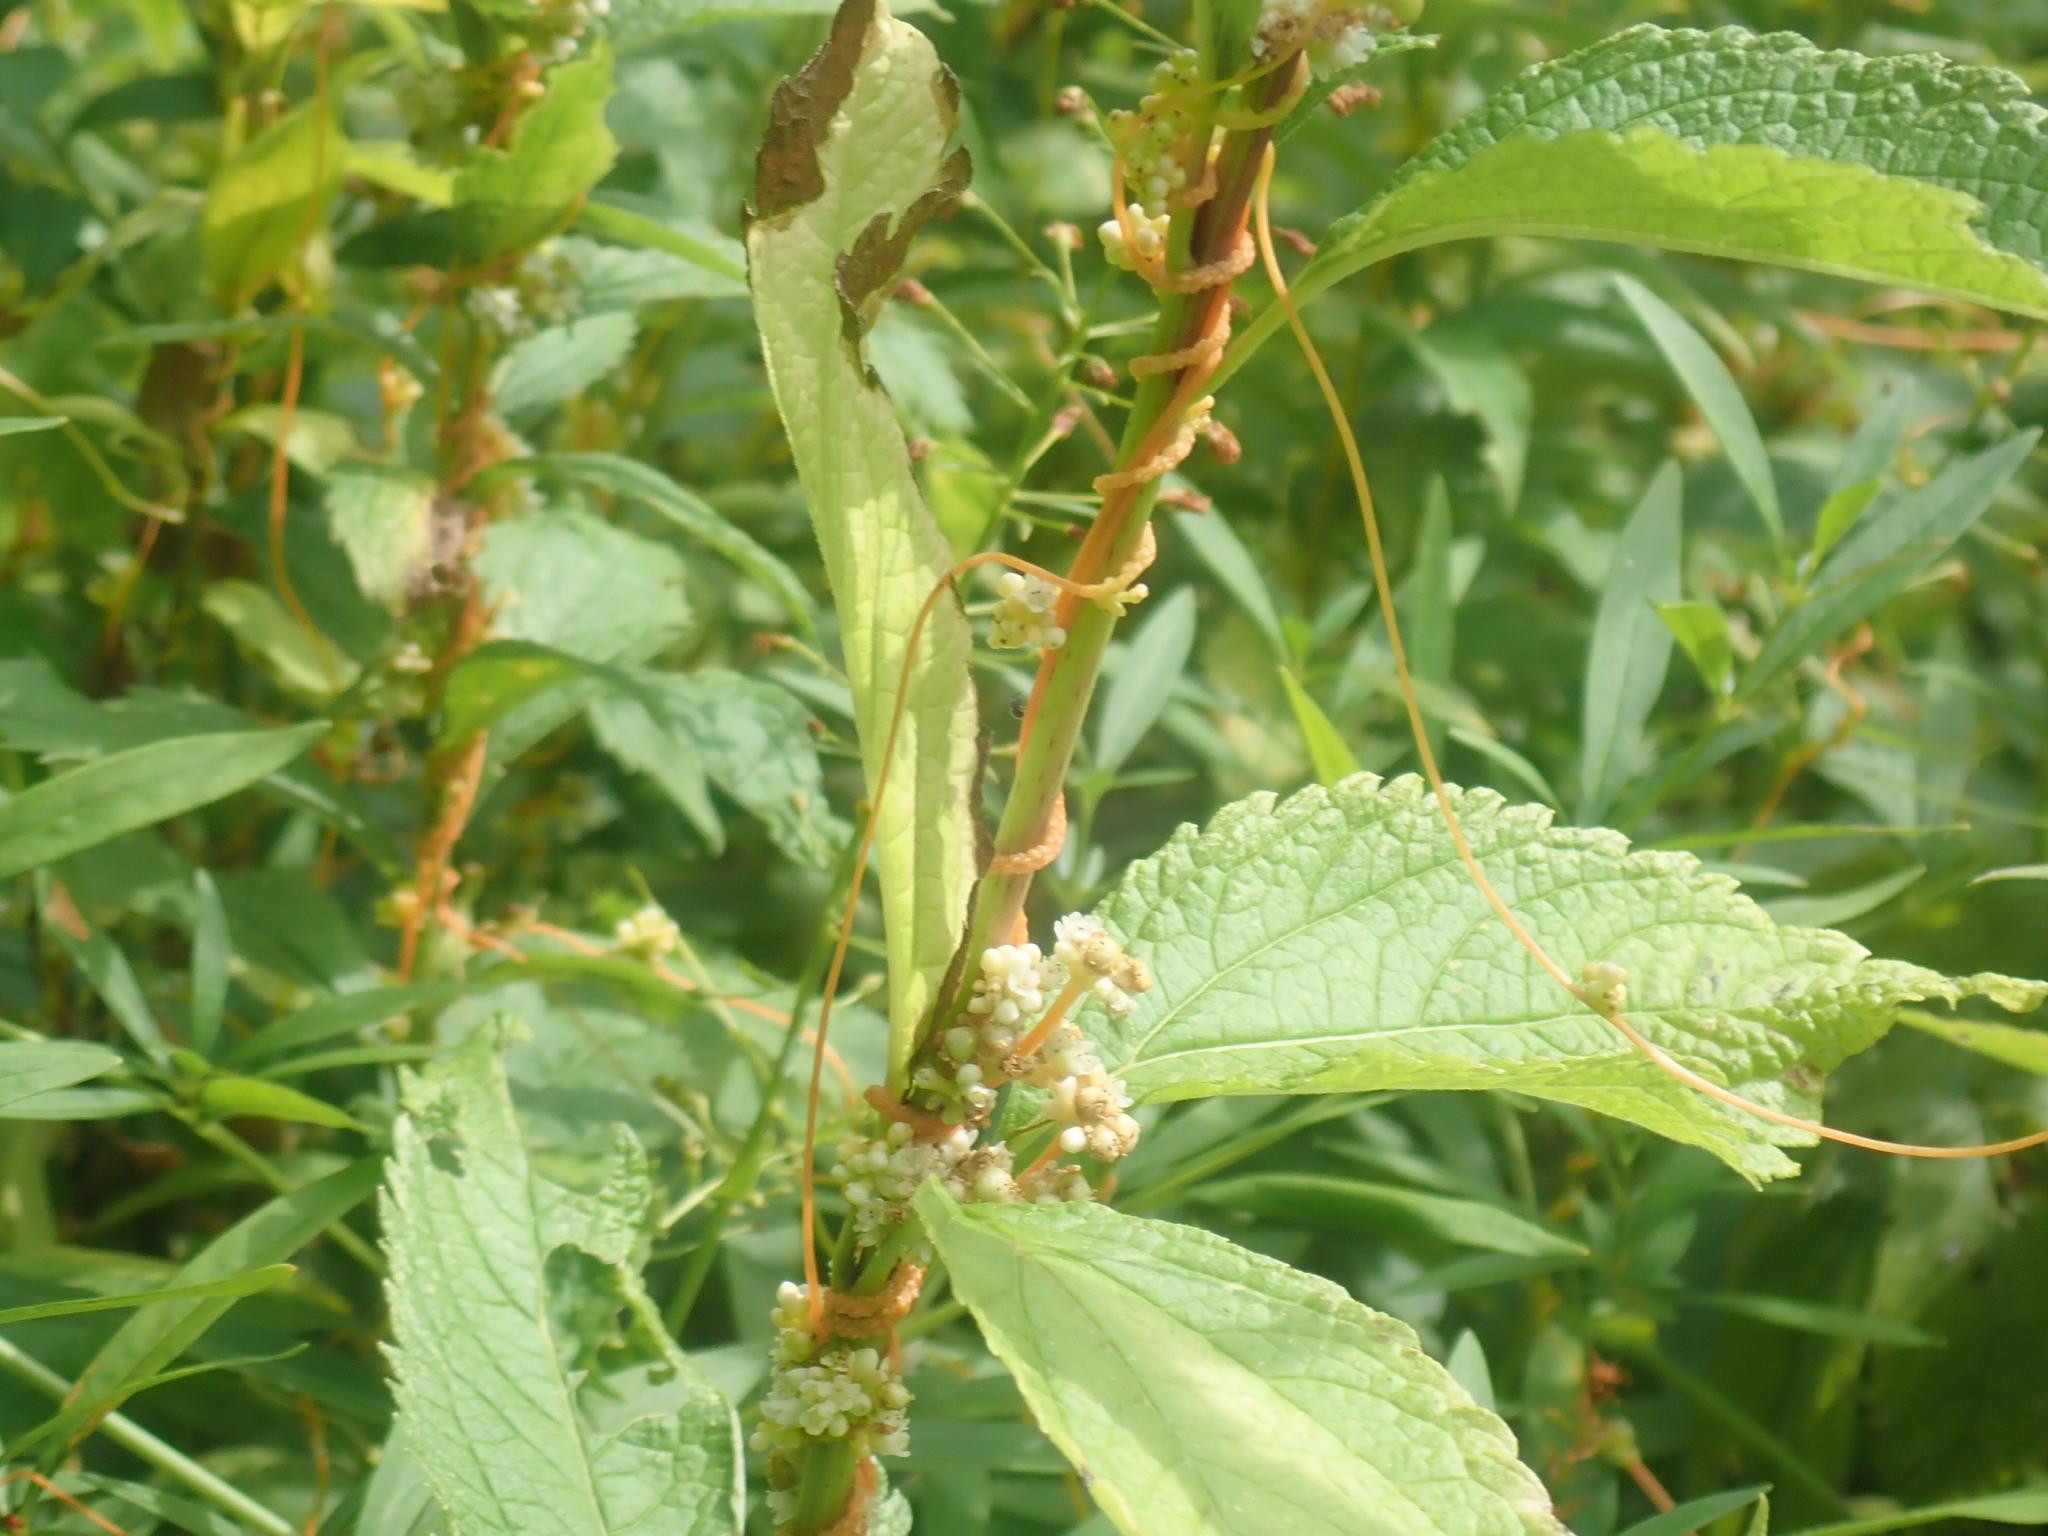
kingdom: Plantae
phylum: Tracheophyta
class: Magnoliopsida
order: Solanales
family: Convolvulaceae
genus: Cuscuta
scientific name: Cuscuta
